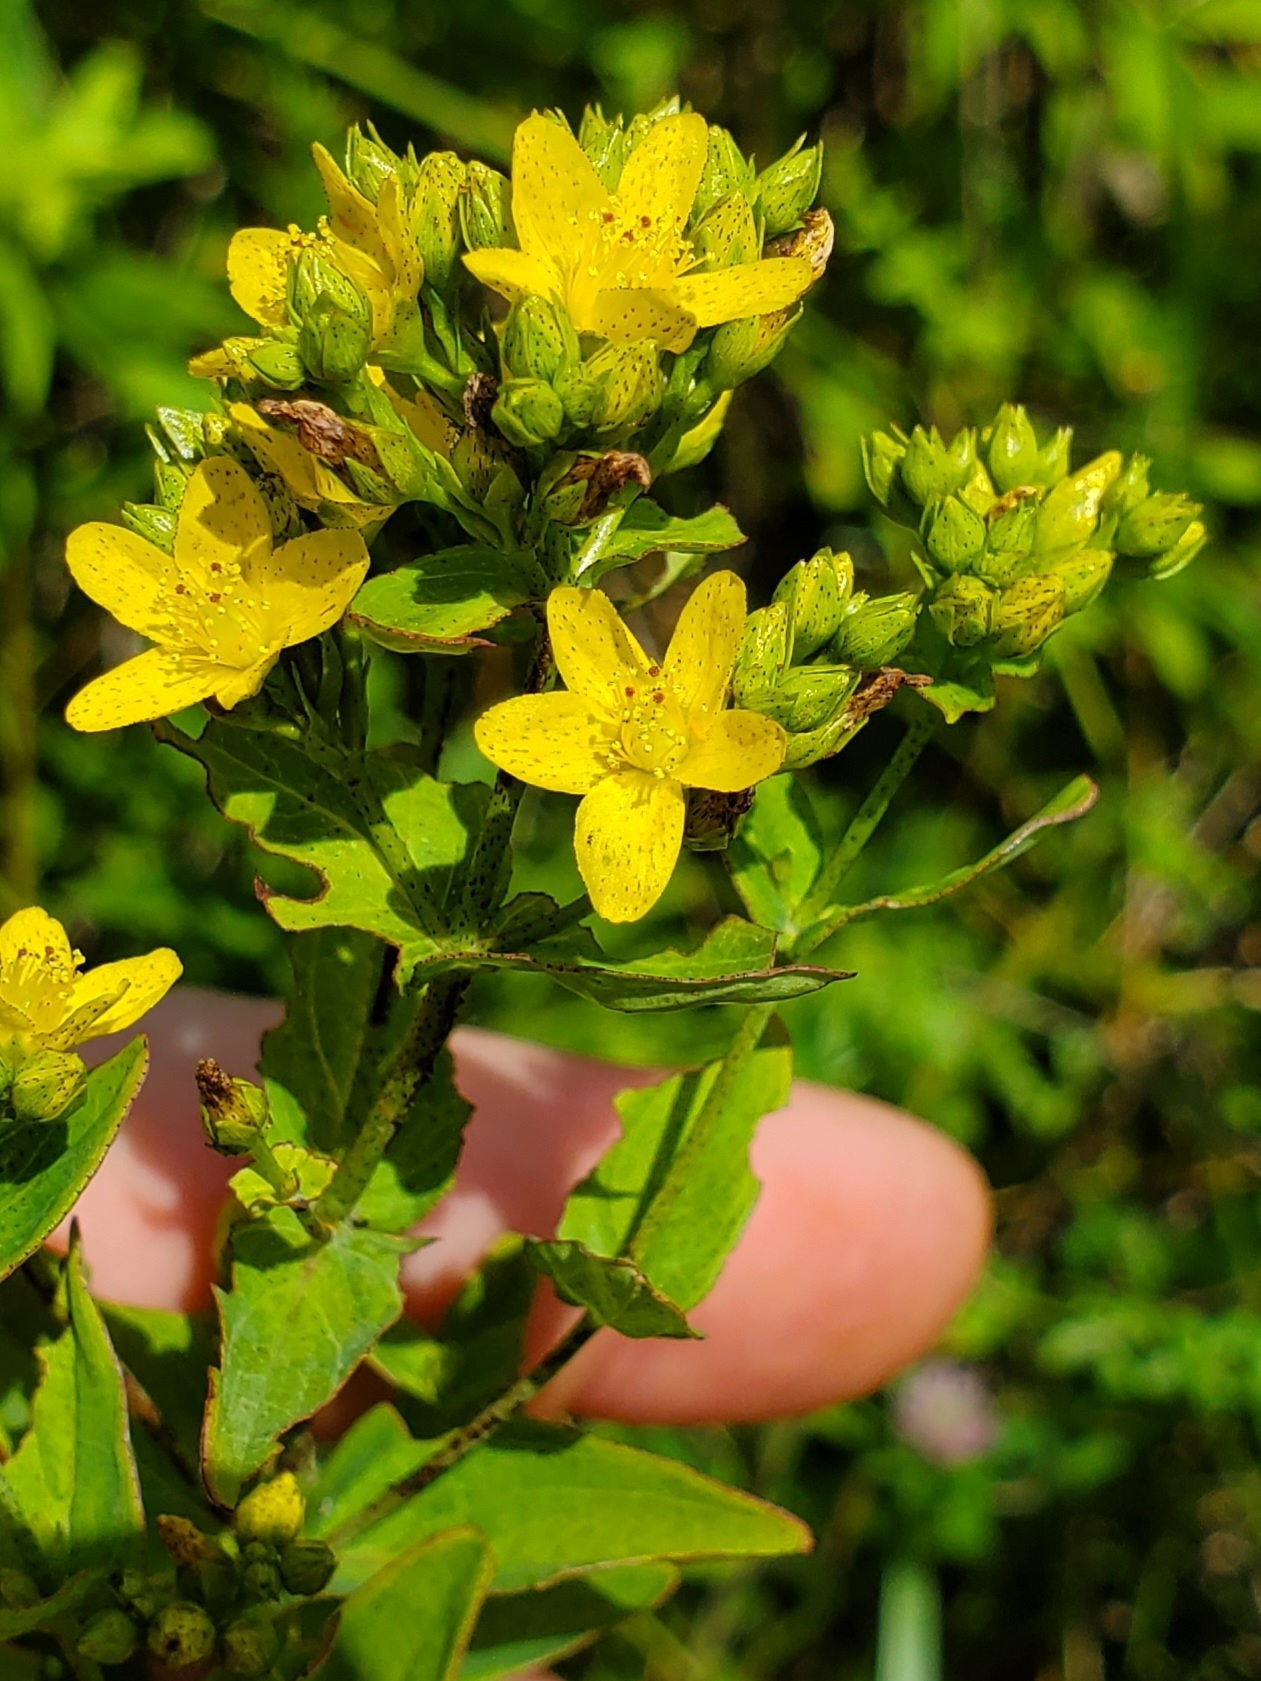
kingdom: Plantae
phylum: Tracheophyta
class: Magnoliopsida
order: Malpighiales
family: Hypericaceae
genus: Hypericum
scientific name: Hypericum punctatum
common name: Spotted st. john's-wort
